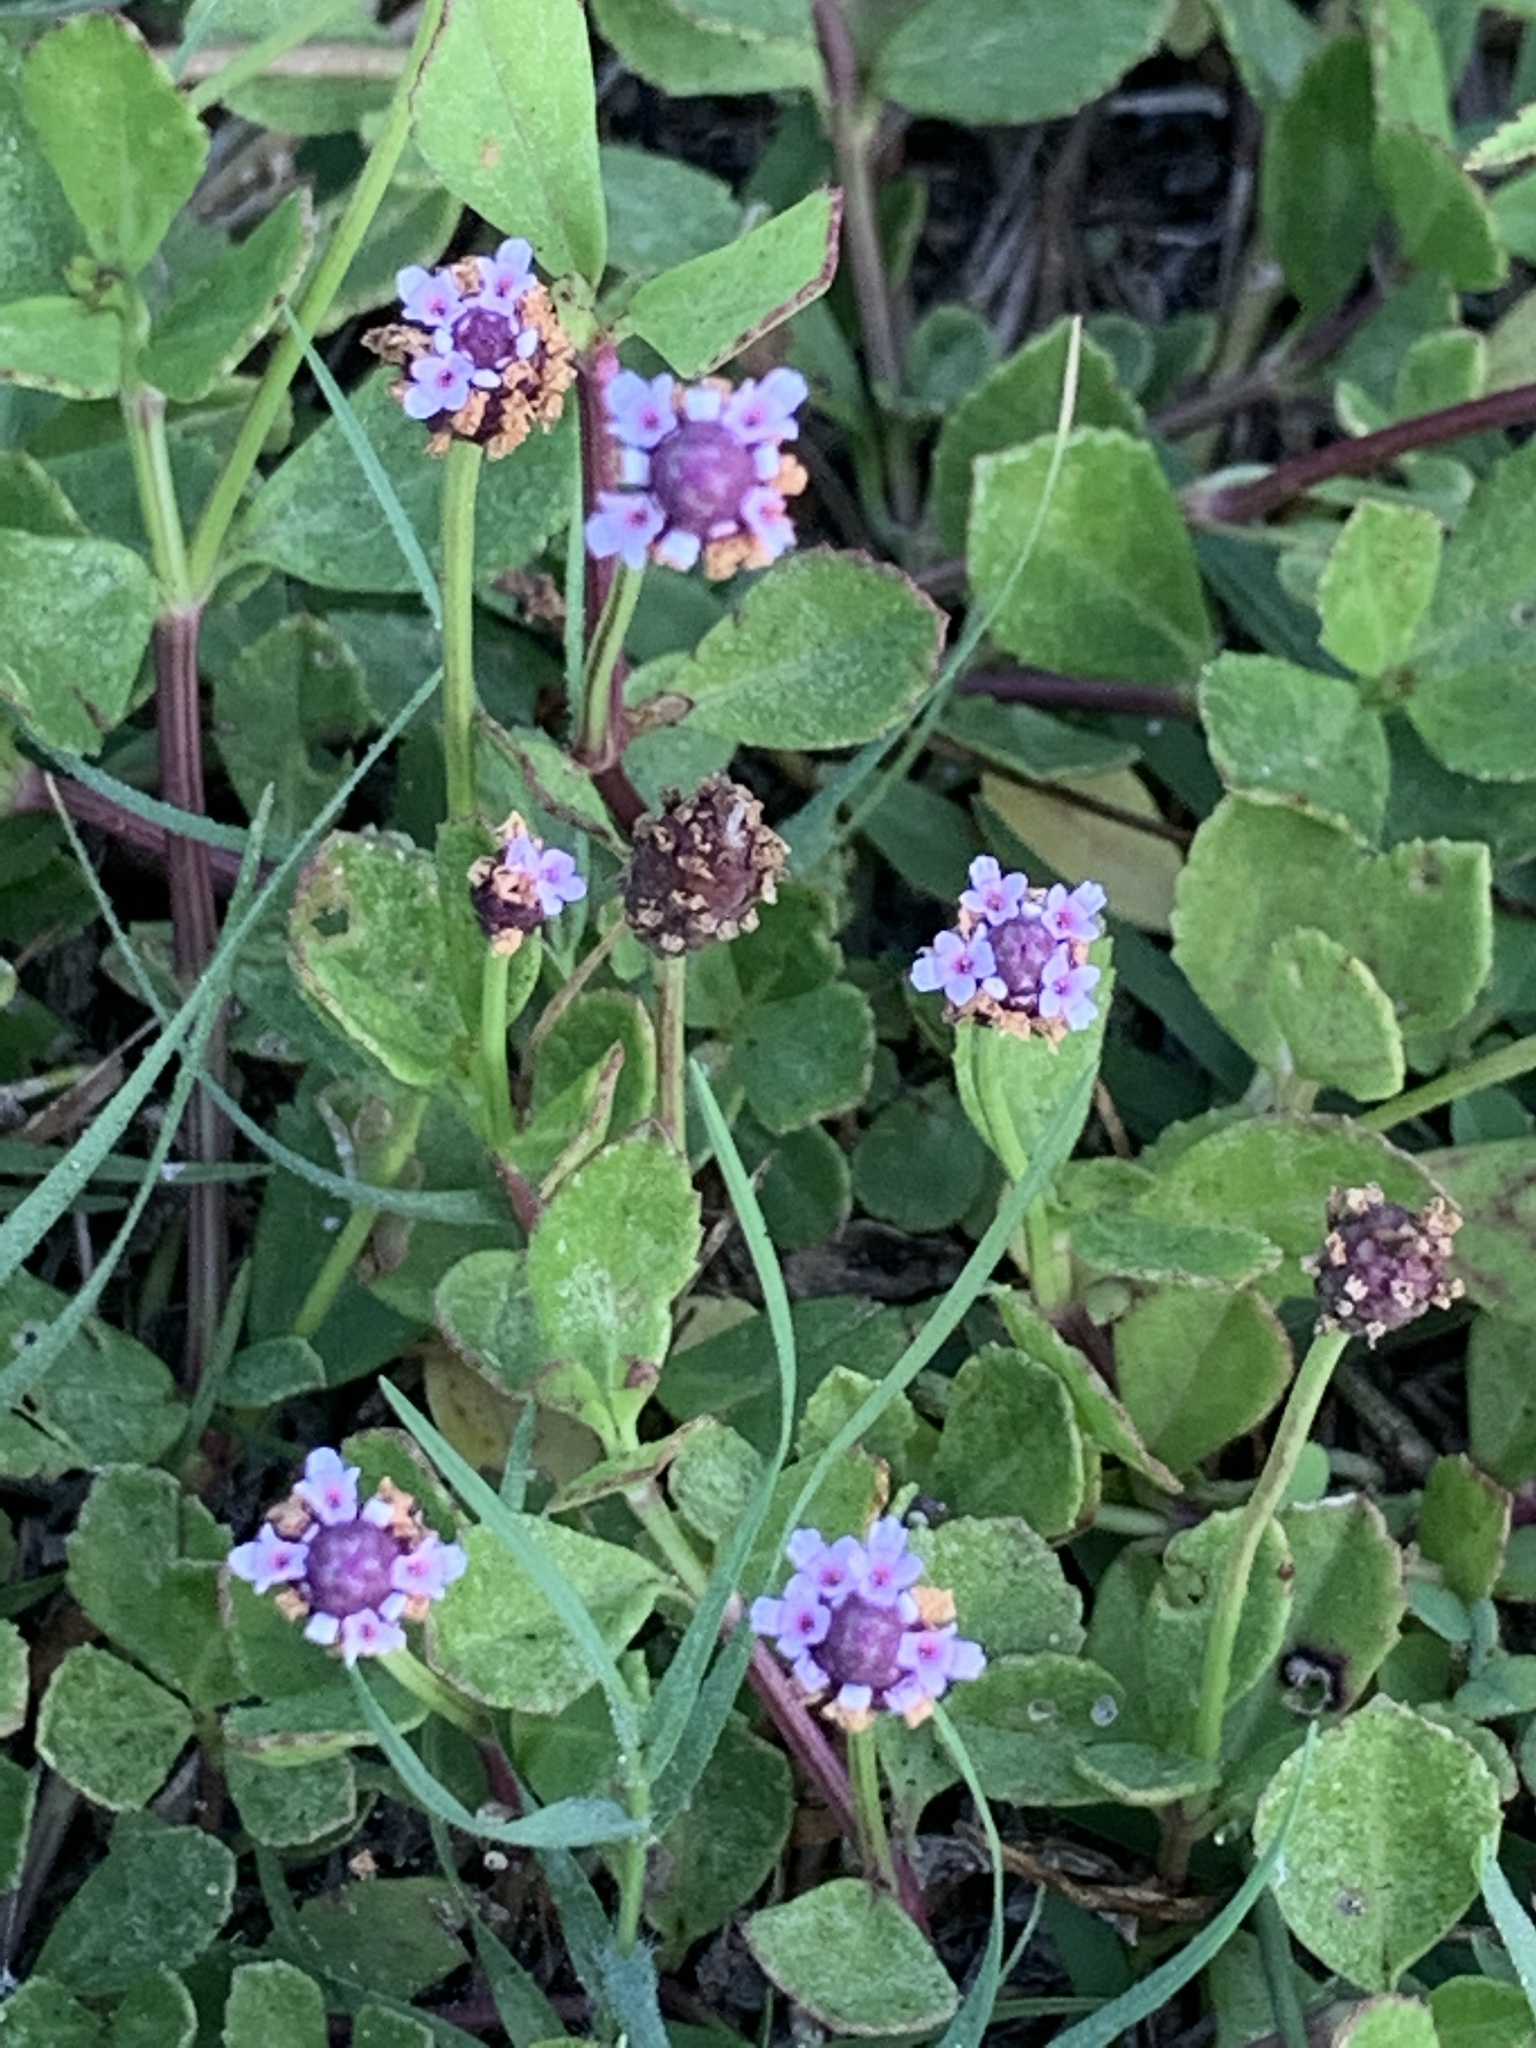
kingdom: Plantae
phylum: Tracheophyta
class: Magnoliopsida
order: Lamiales
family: Verbenaceae
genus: Phyla
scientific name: Phyla nodiflora
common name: Frogfruit
